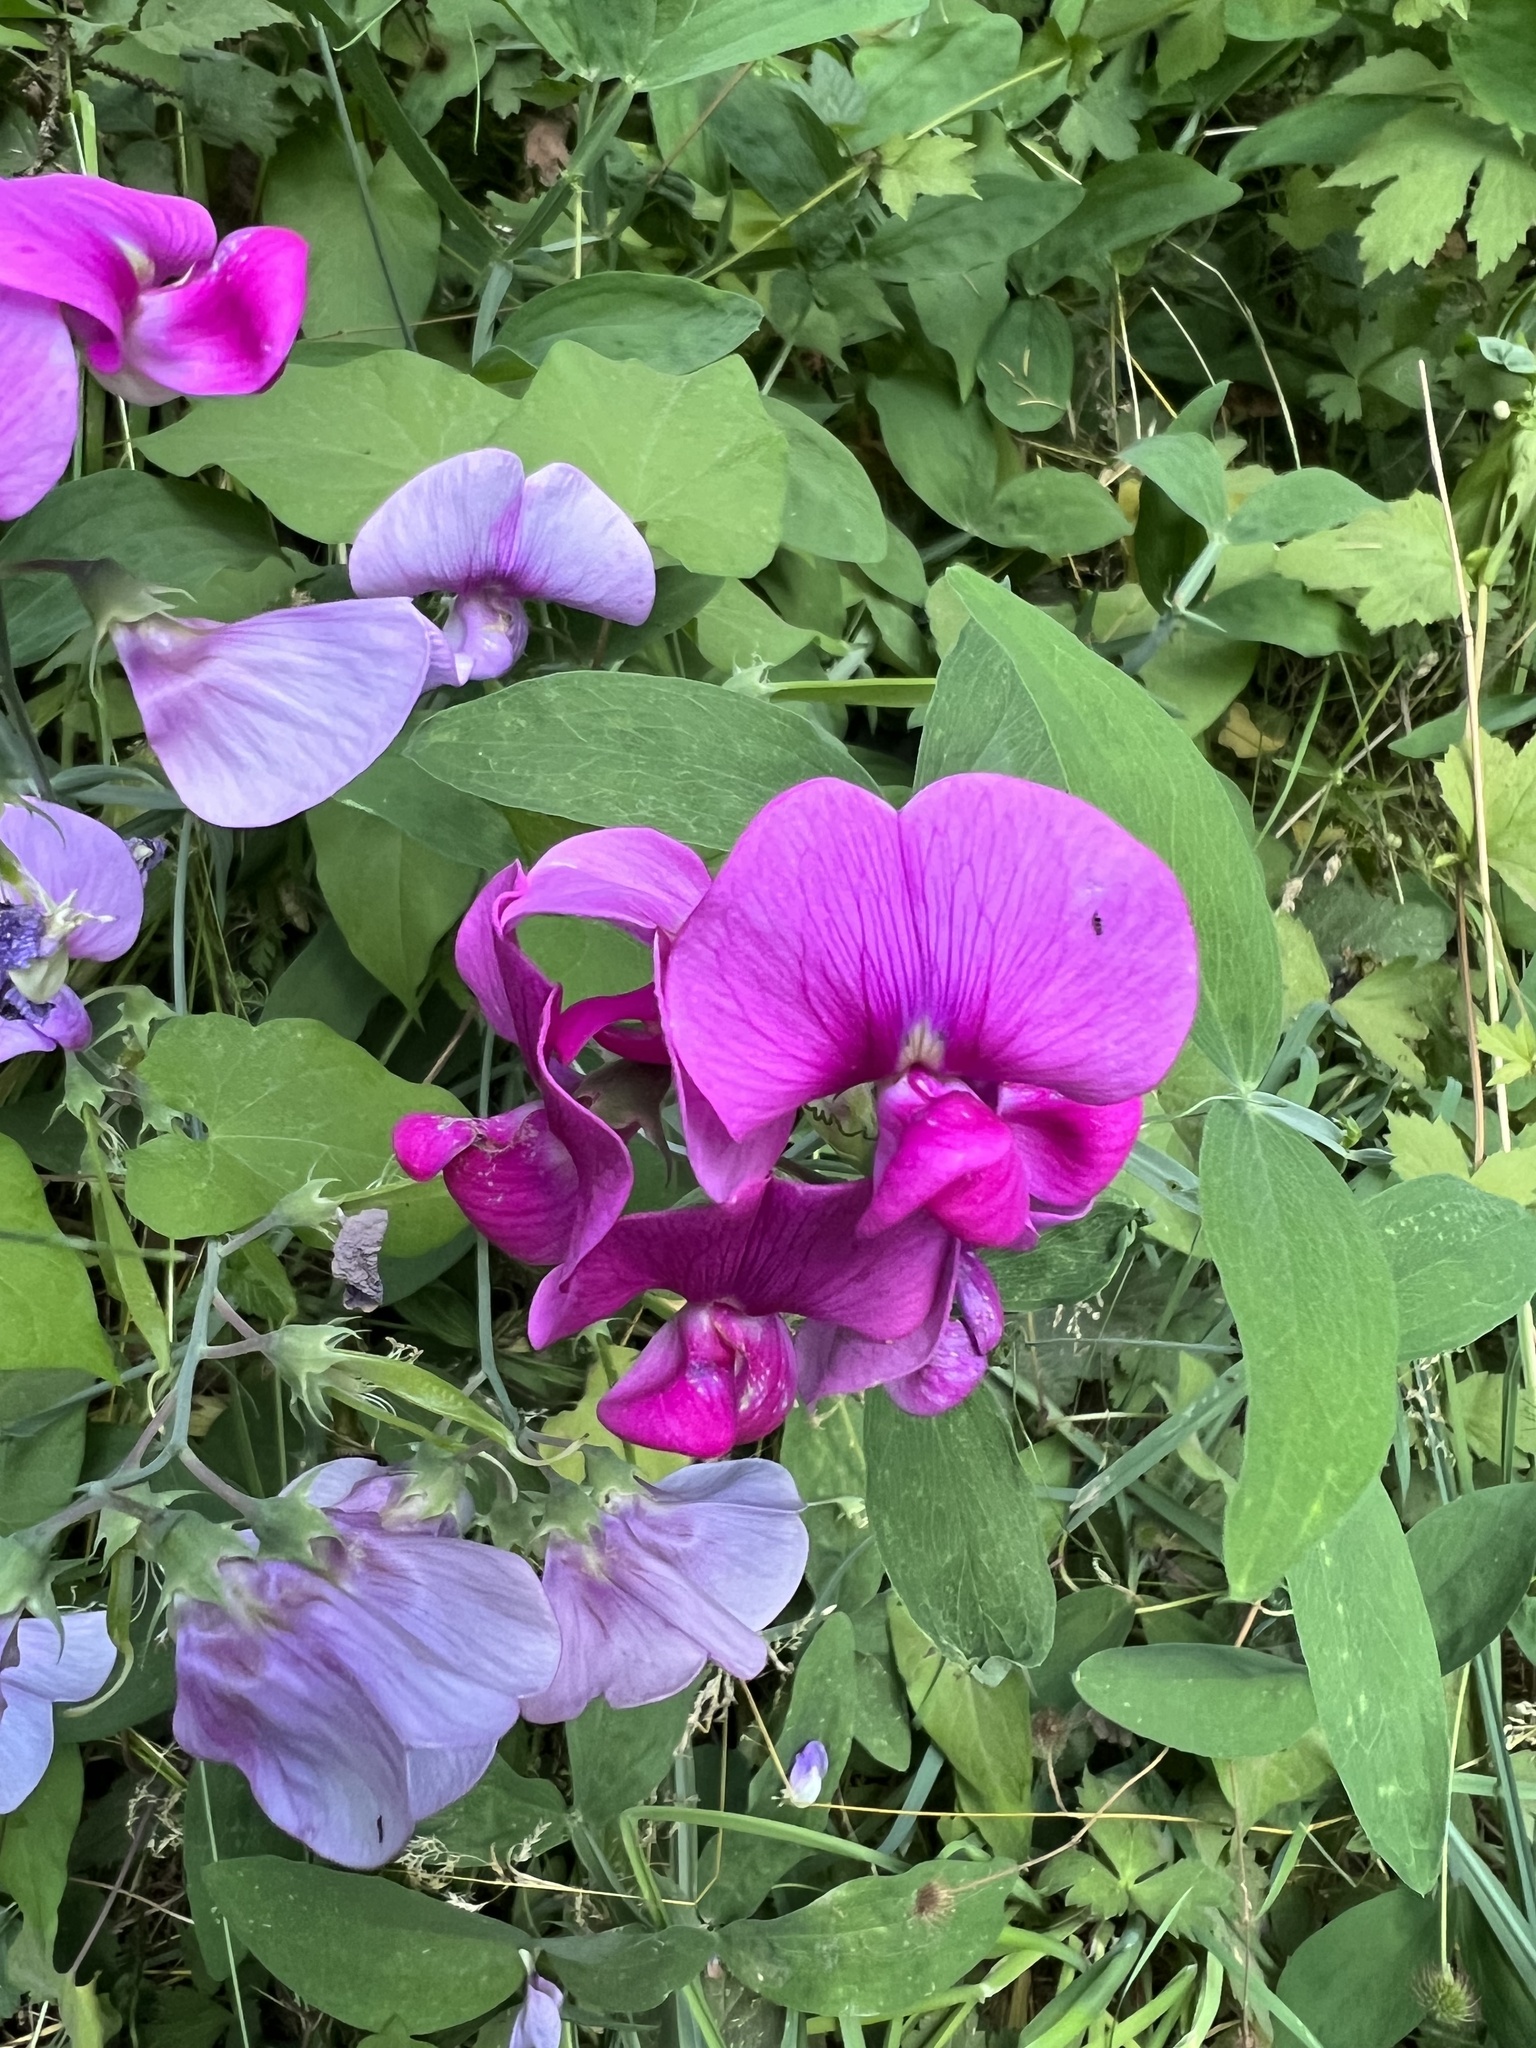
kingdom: Plantae
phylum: Tracheophyta
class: Magnoliopsida
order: Fabales
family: Fabaceae
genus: Lathyrus
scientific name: Lathyrus latifolius
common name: Perennial pea
